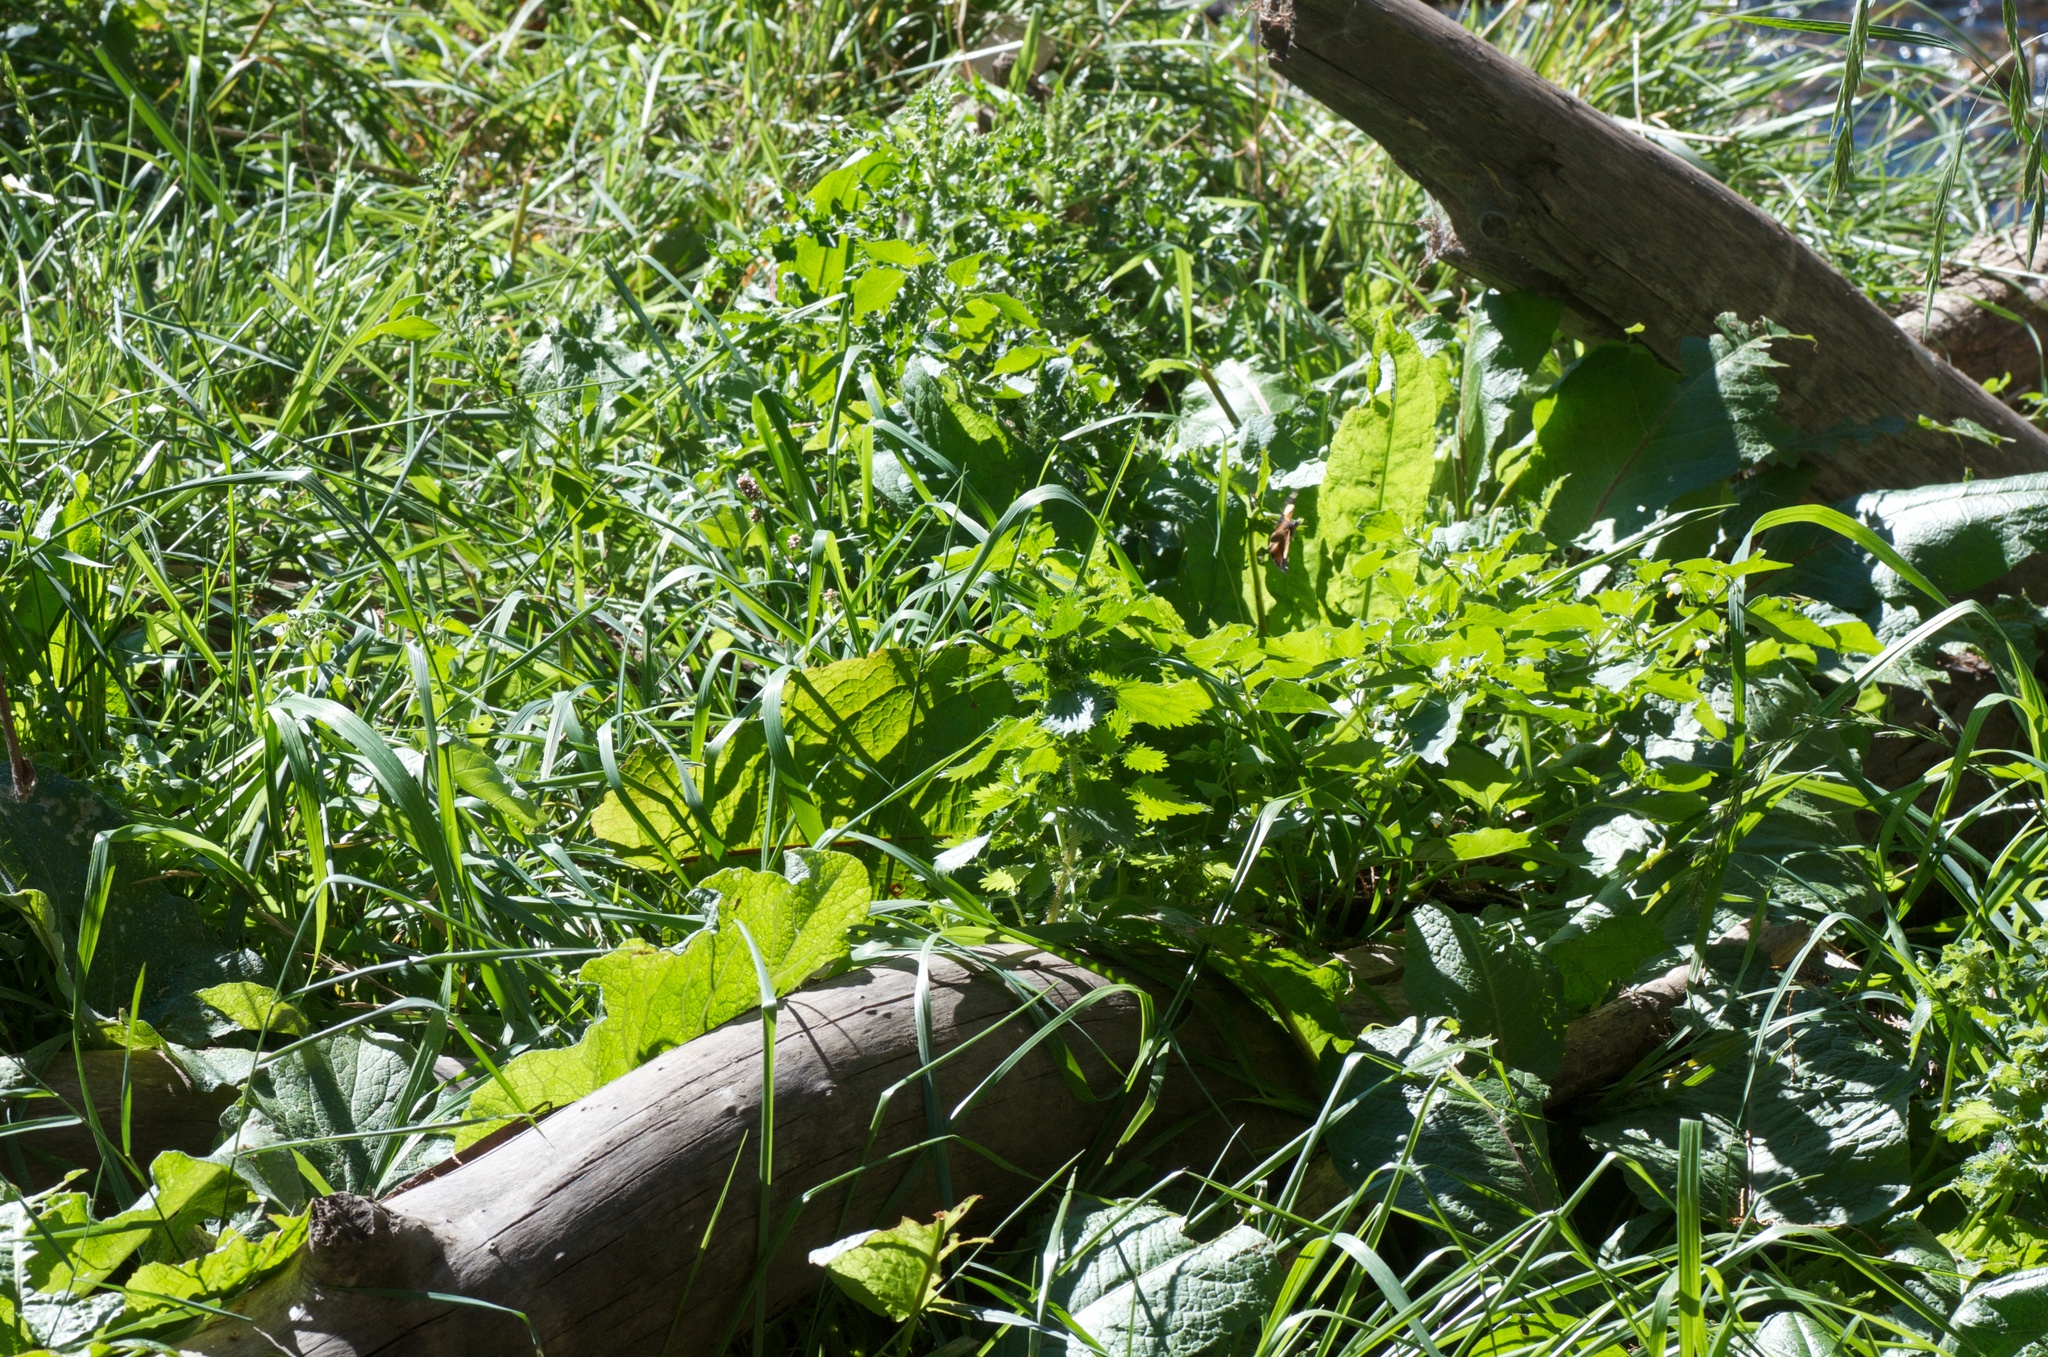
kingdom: Plantae
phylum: Tracheophyta
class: Magnoliopsida
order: Rosales
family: Urticaceae
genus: Urtica
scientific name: Urtica urens
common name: Dwarf nettle
